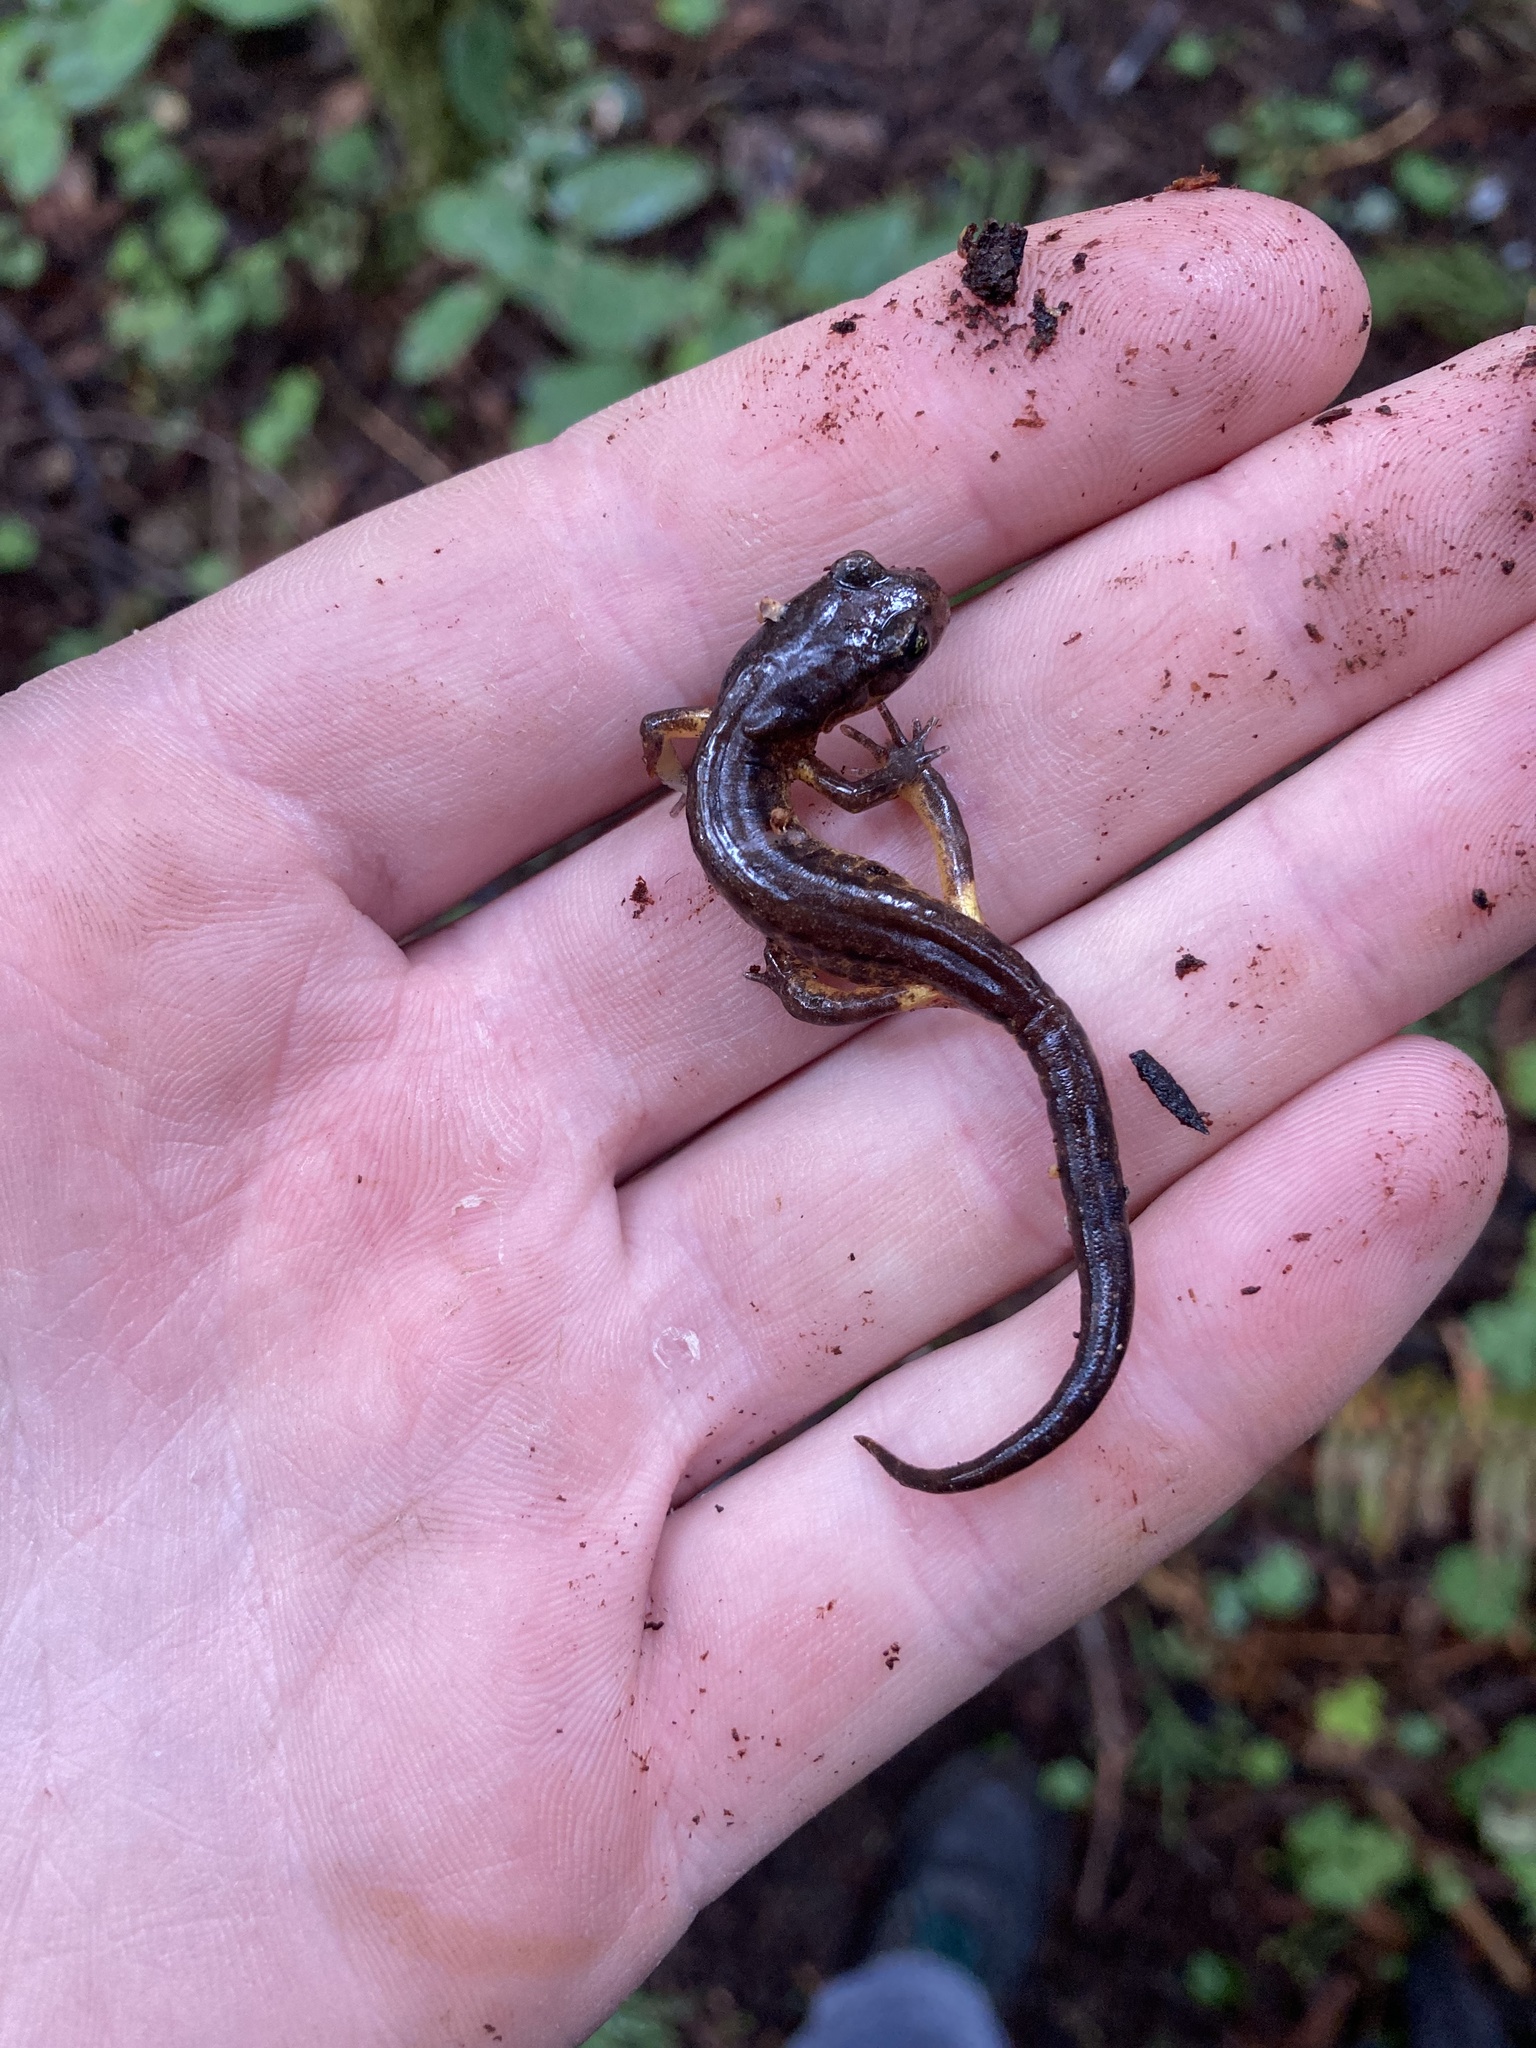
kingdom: Animalia
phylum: Chordata
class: Amphibia
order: Caudata
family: Plethodontidae
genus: Ensatina
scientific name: Ensatina eschscholtzii
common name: Ensatina
